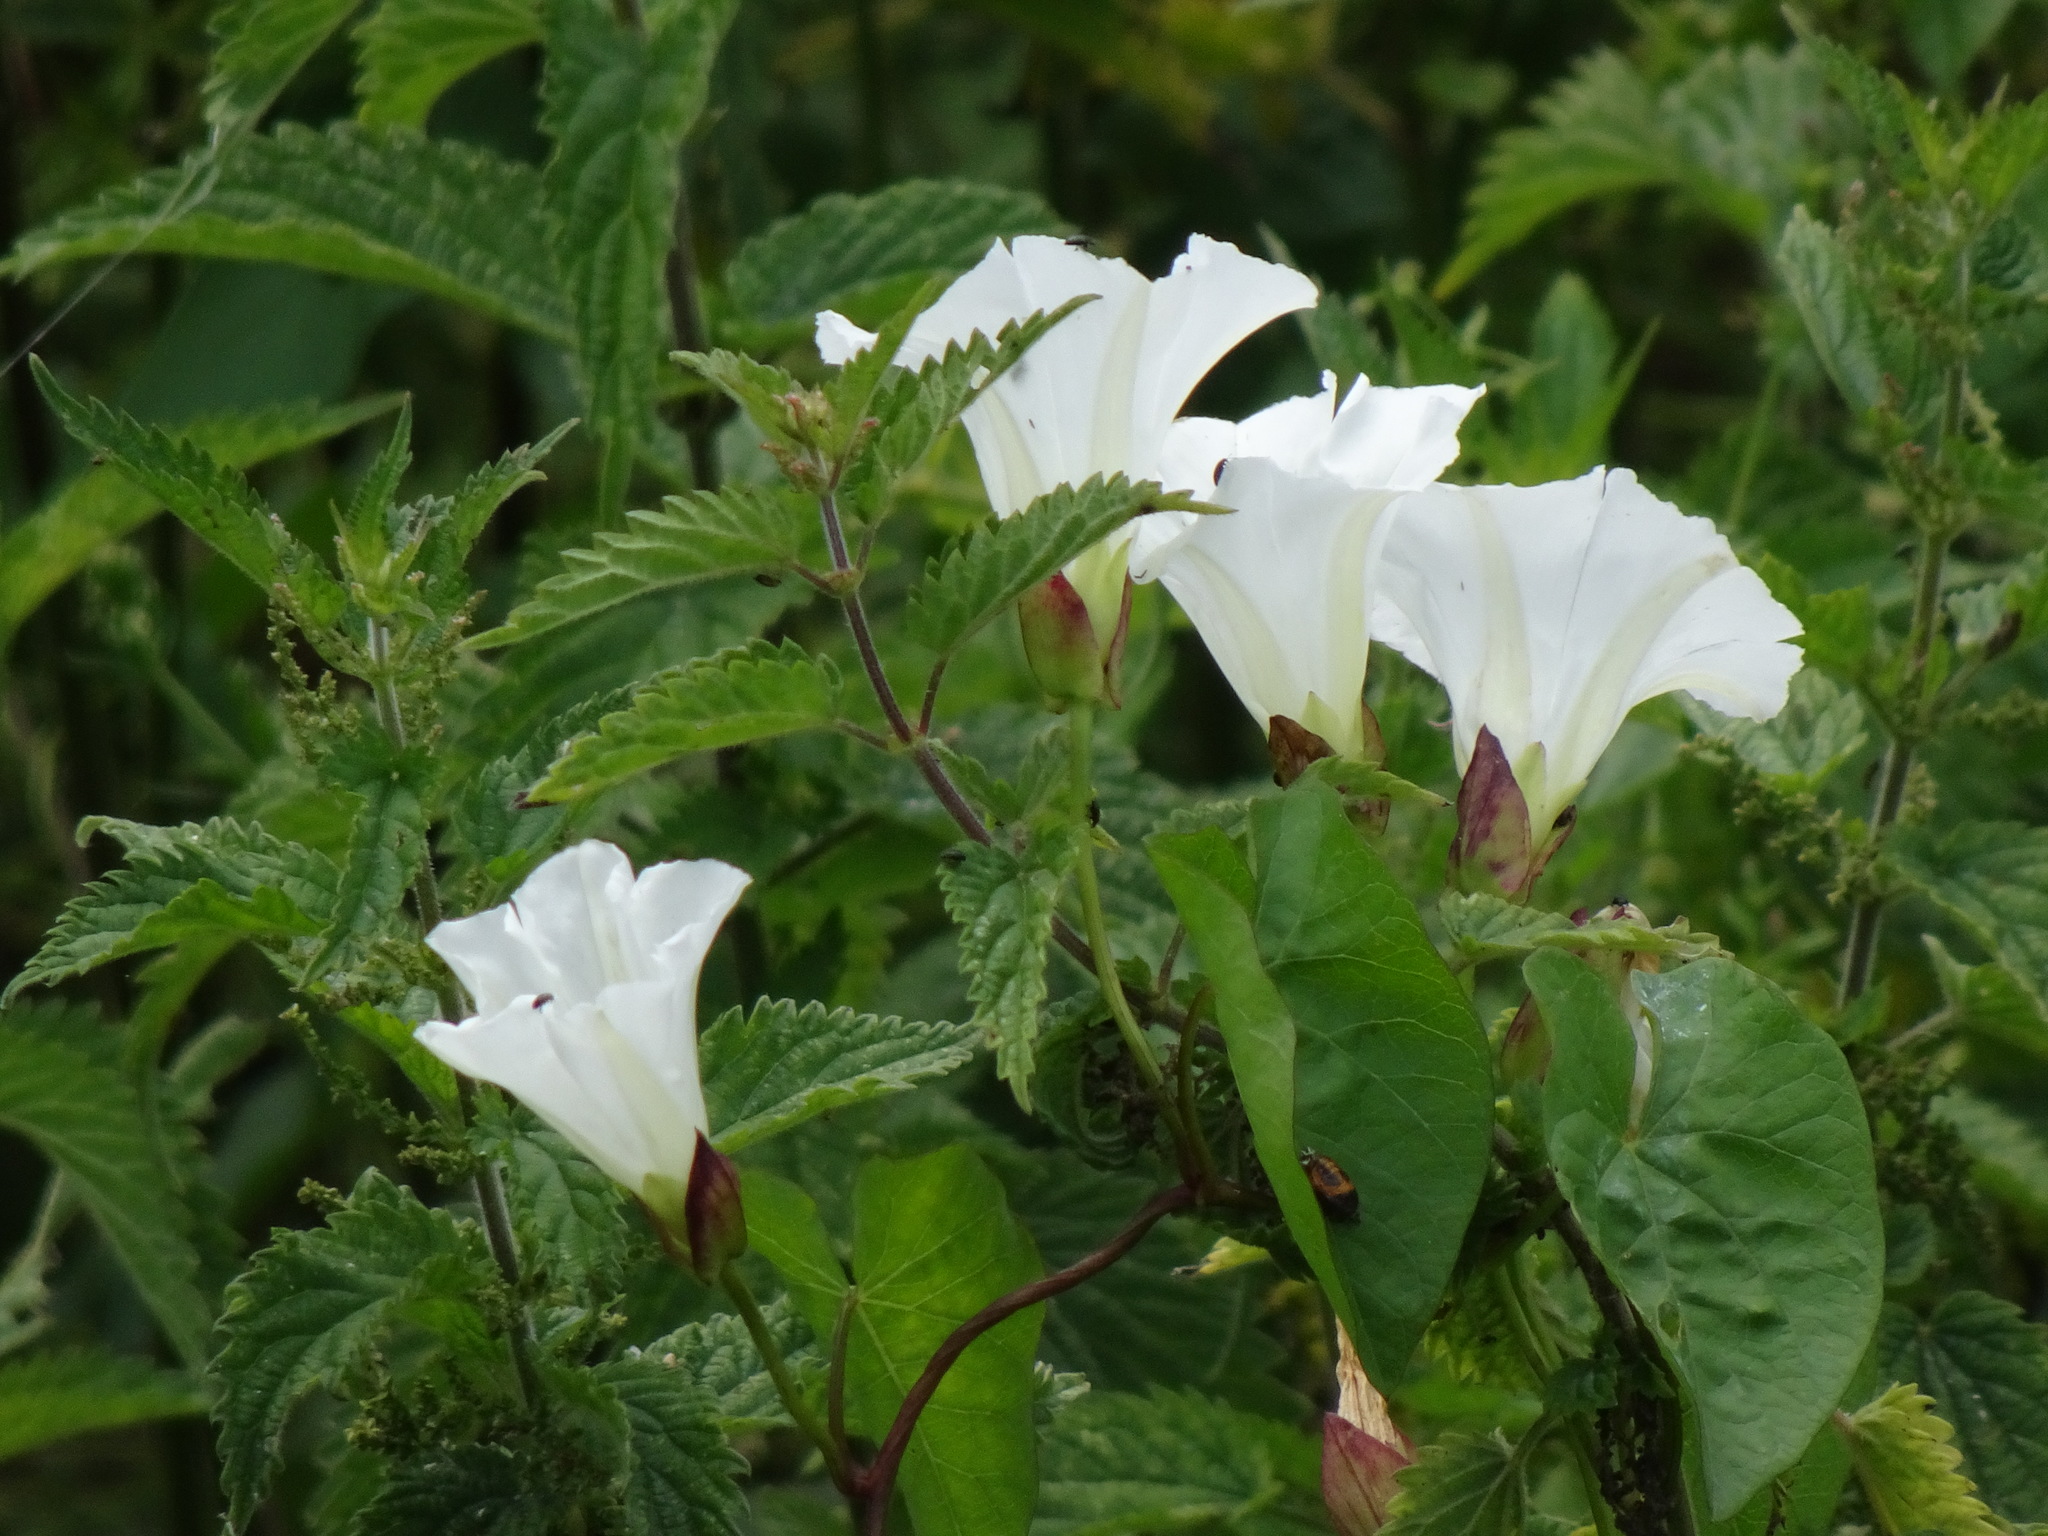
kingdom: Plantae
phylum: Tracheophyta
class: Magnoliopsida
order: Solanales
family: Convolvulaceae
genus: Calystegia
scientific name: Calystegia sepium
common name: Hedge bindweed
